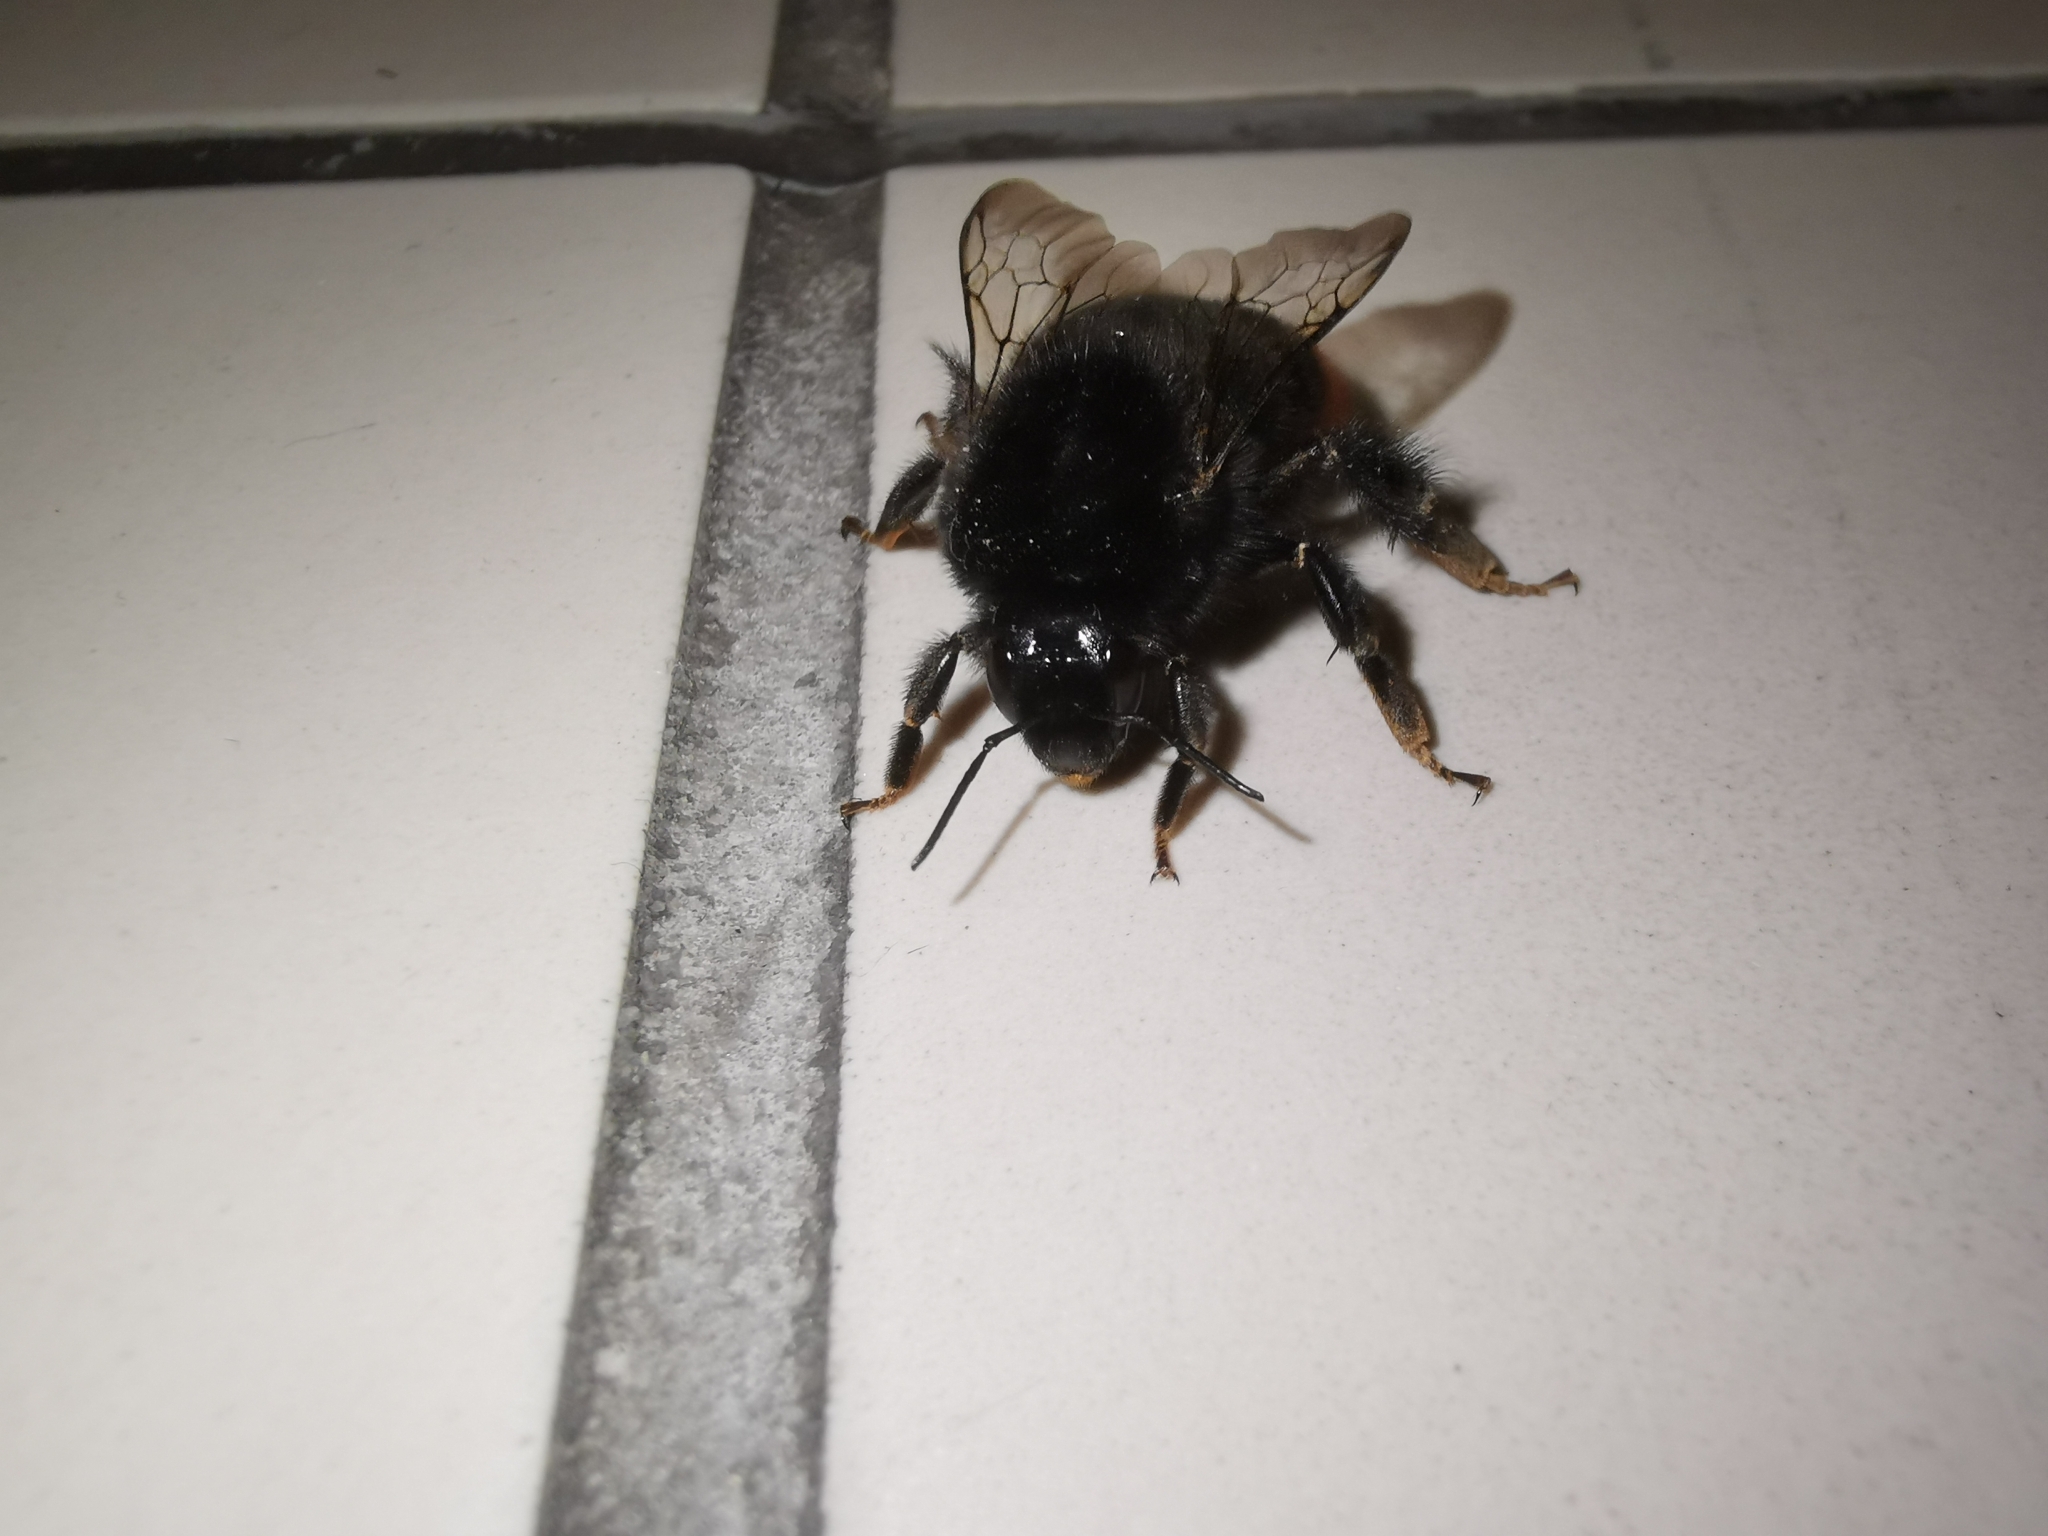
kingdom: Animalia
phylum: Arthropoda
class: Insecta
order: Hymenoptera
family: Apidae
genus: Bombus
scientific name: Bombus lapidarius
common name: Large red-tailed humble-bee
